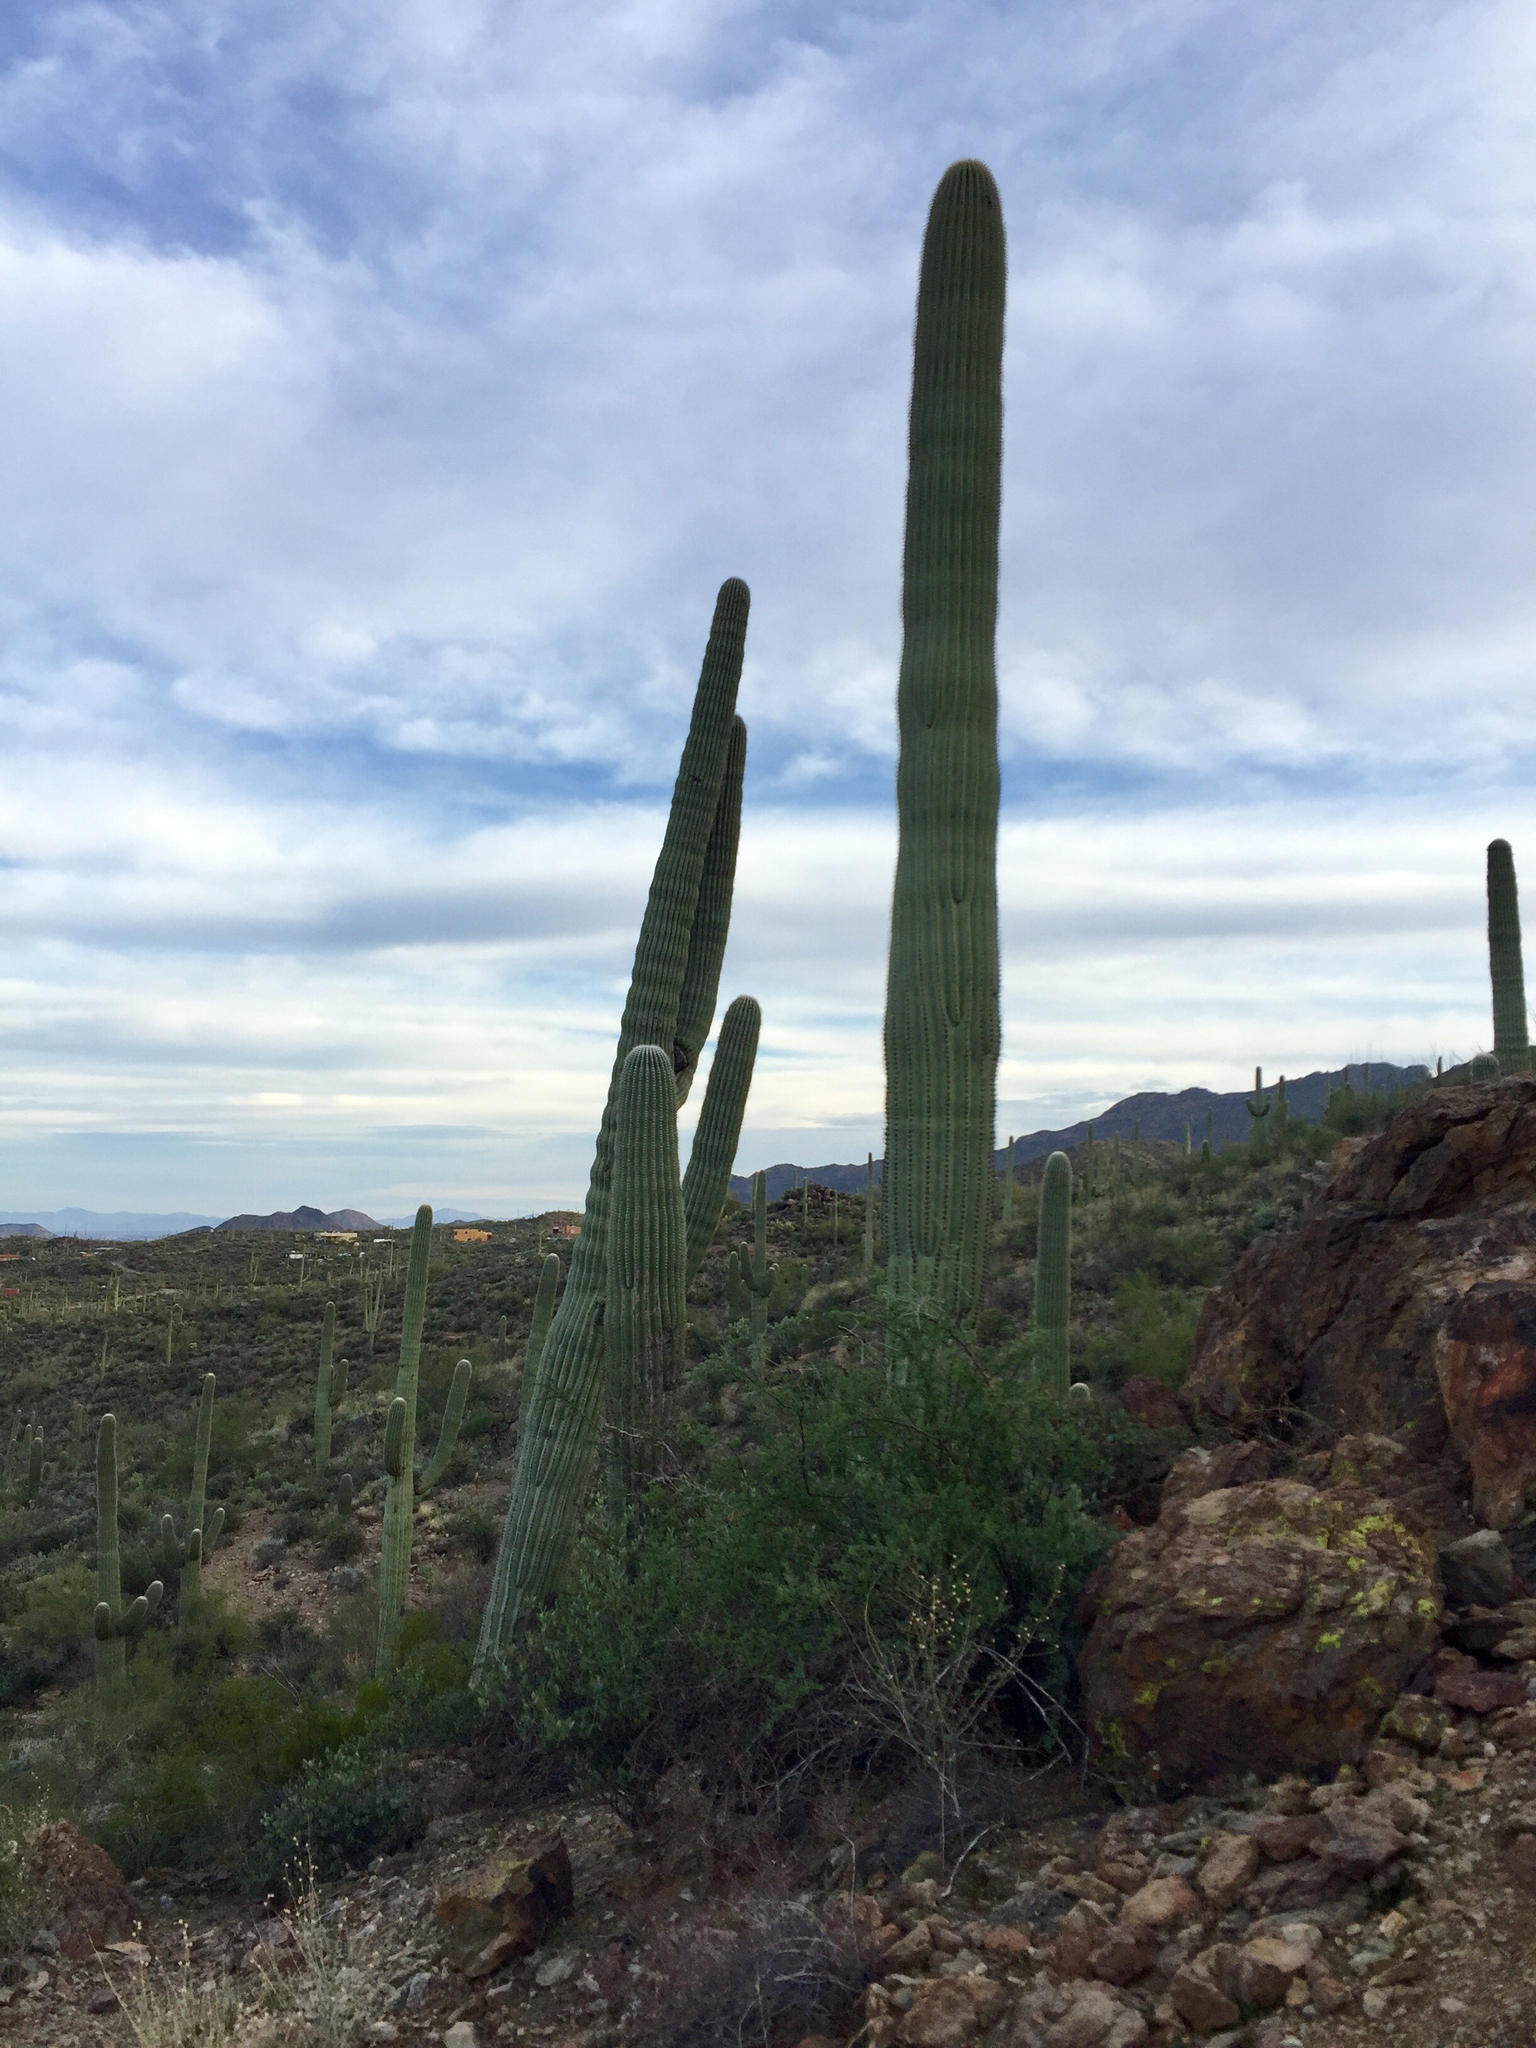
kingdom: Plantae
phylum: Tracheophyta
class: Magnoliopsida
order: Caryophyllales
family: Cactaceae
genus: Carnegiea
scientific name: Carnegiea gigantea
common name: Saguaro
